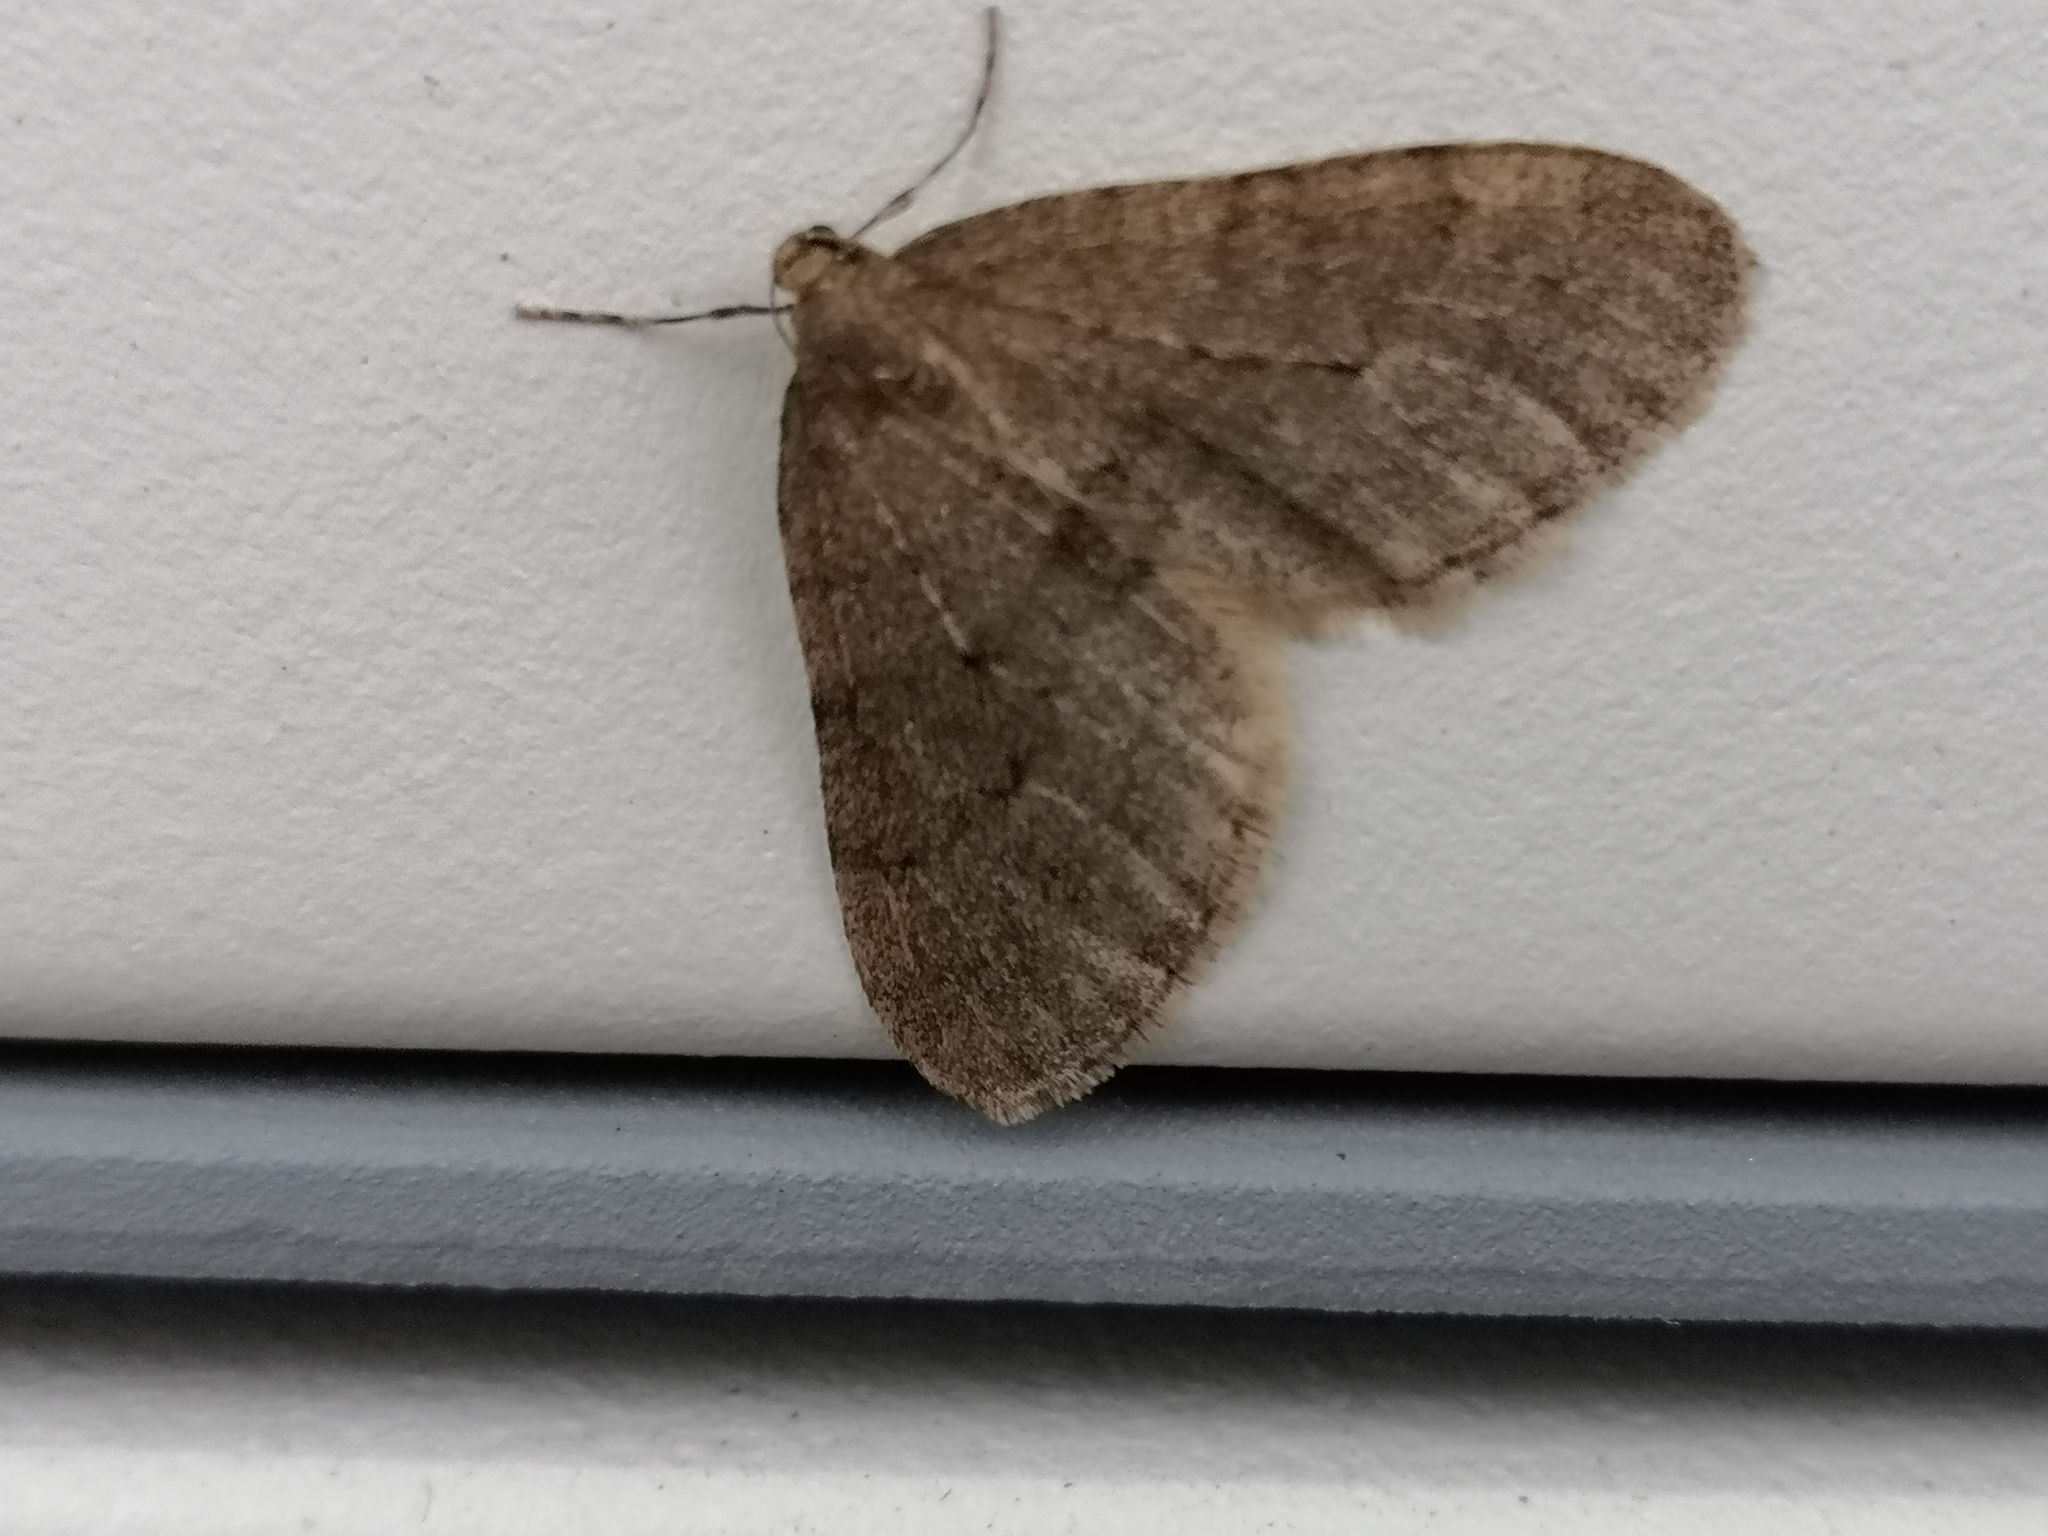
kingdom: Animalia
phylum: Arthropoda
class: Insecta
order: Lepidoptera
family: Geometridae
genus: Operophtera
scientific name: Operophtera brumata
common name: Winter moth
